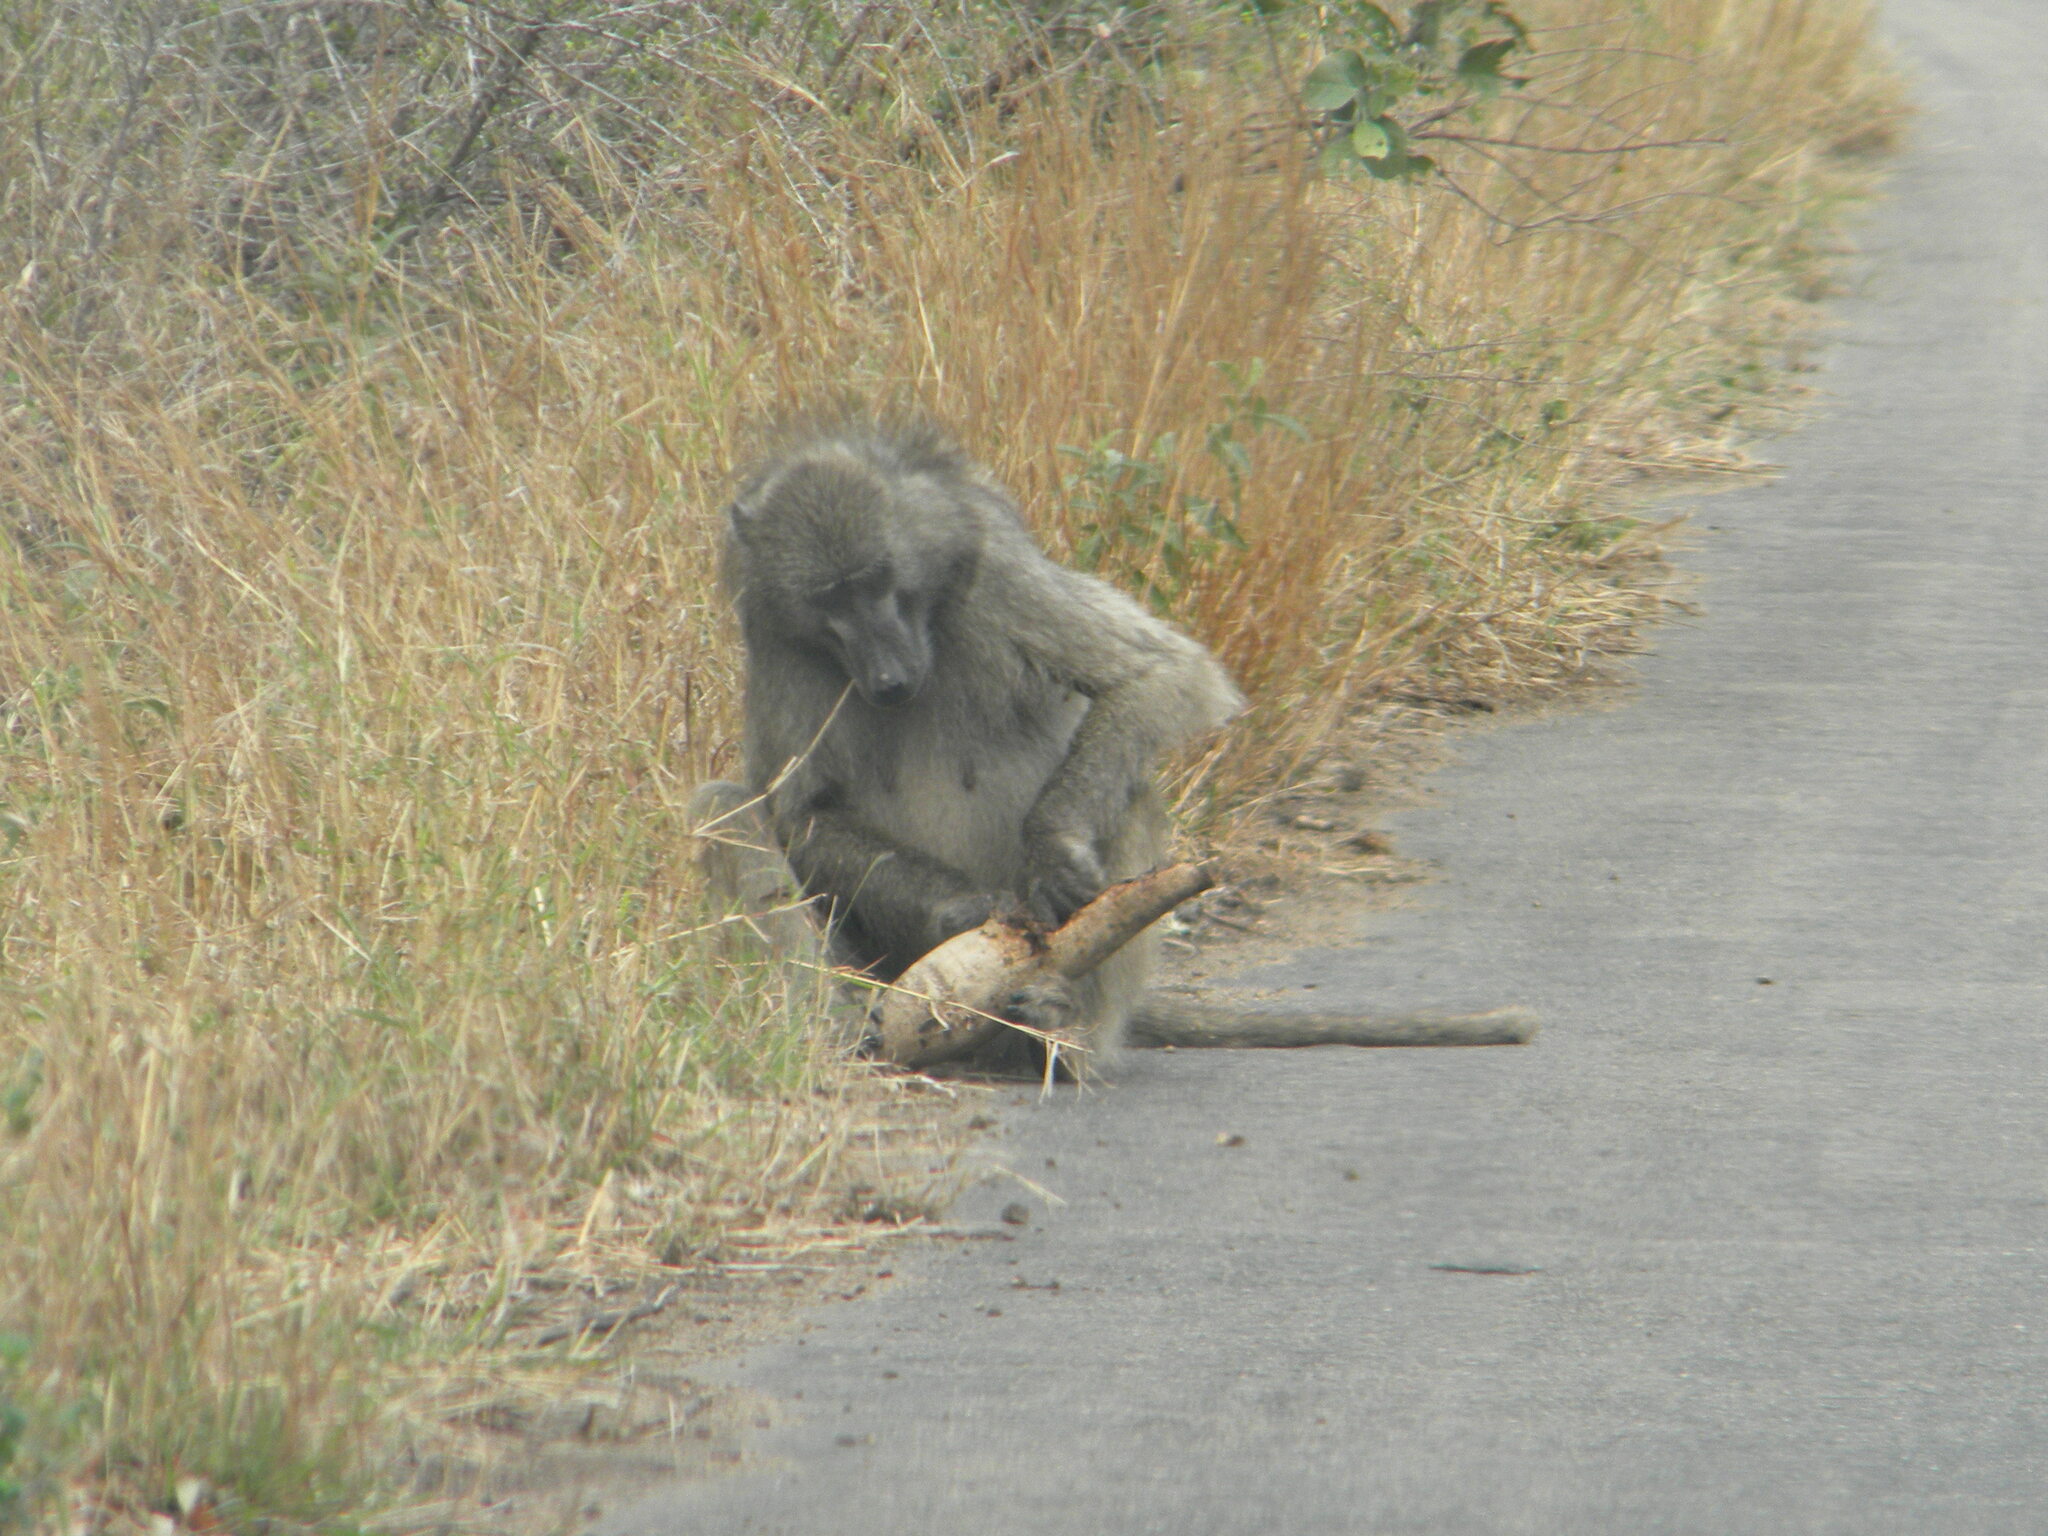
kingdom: Animalia
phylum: Chordata
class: Mammalia
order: Primates
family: Cercopithecidae
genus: Papio
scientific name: Papio ursinus
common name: Chacma baboon
